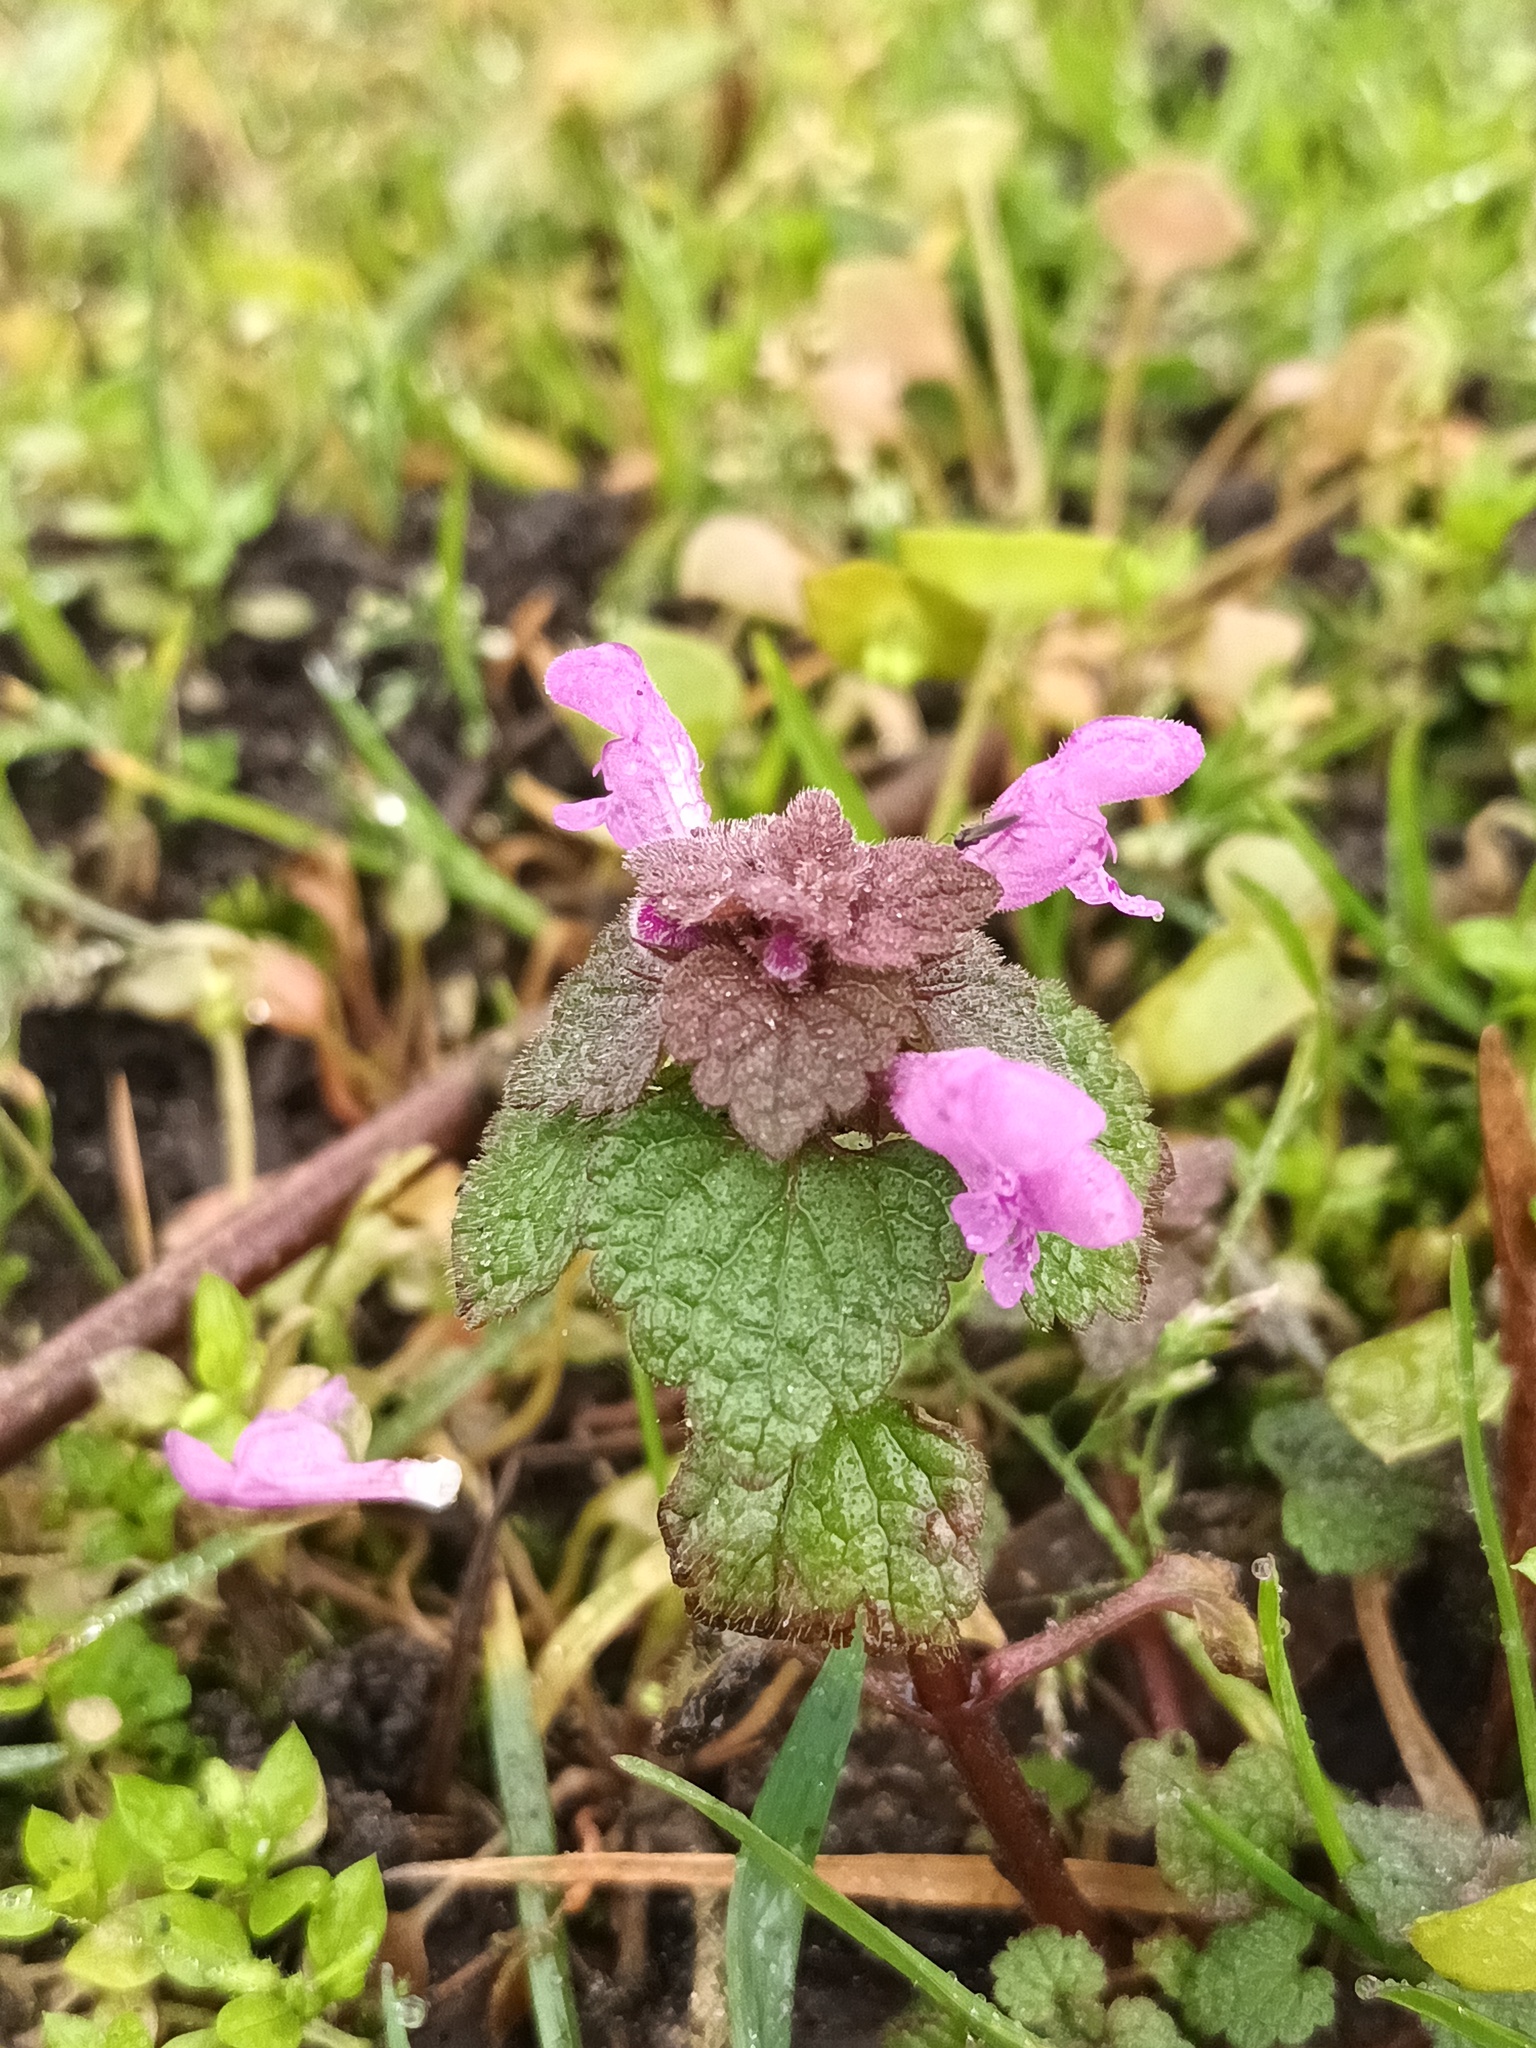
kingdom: Plantae
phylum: Tracheophyta
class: Magnoliopsida
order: Lamiales
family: Lamiaceae
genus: Lamium
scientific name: Lamium purpureum
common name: Red dead-nettle
